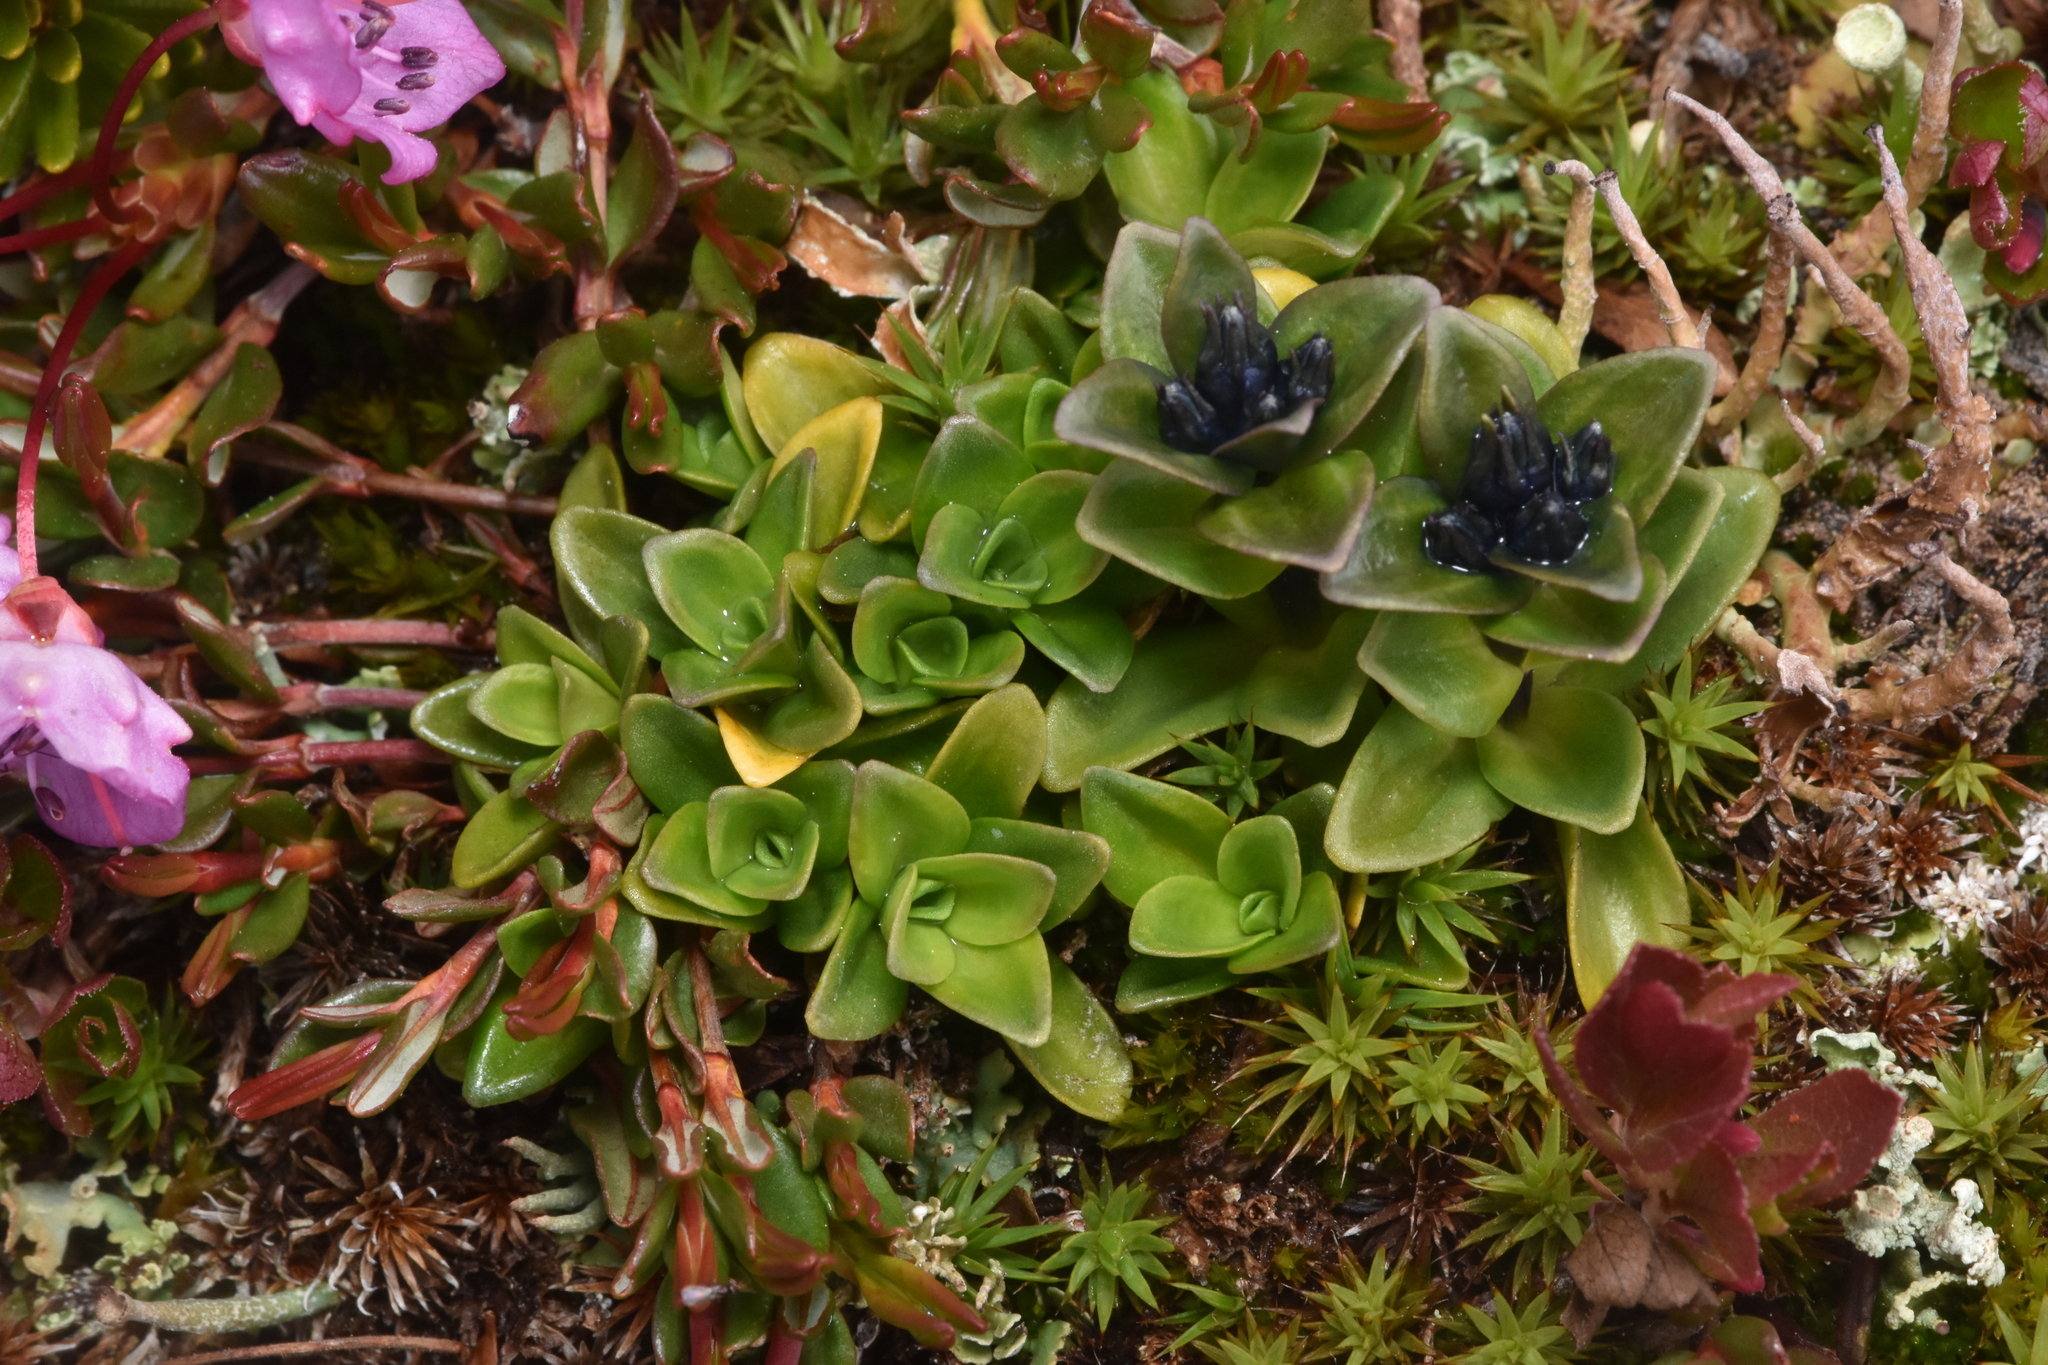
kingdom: Plantae
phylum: Tracheophyta
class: Magnoliopsida
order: Gentianales
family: Gentianaceae
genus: Gentiana
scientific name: Gentiana glauca
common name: Alpine gentian
